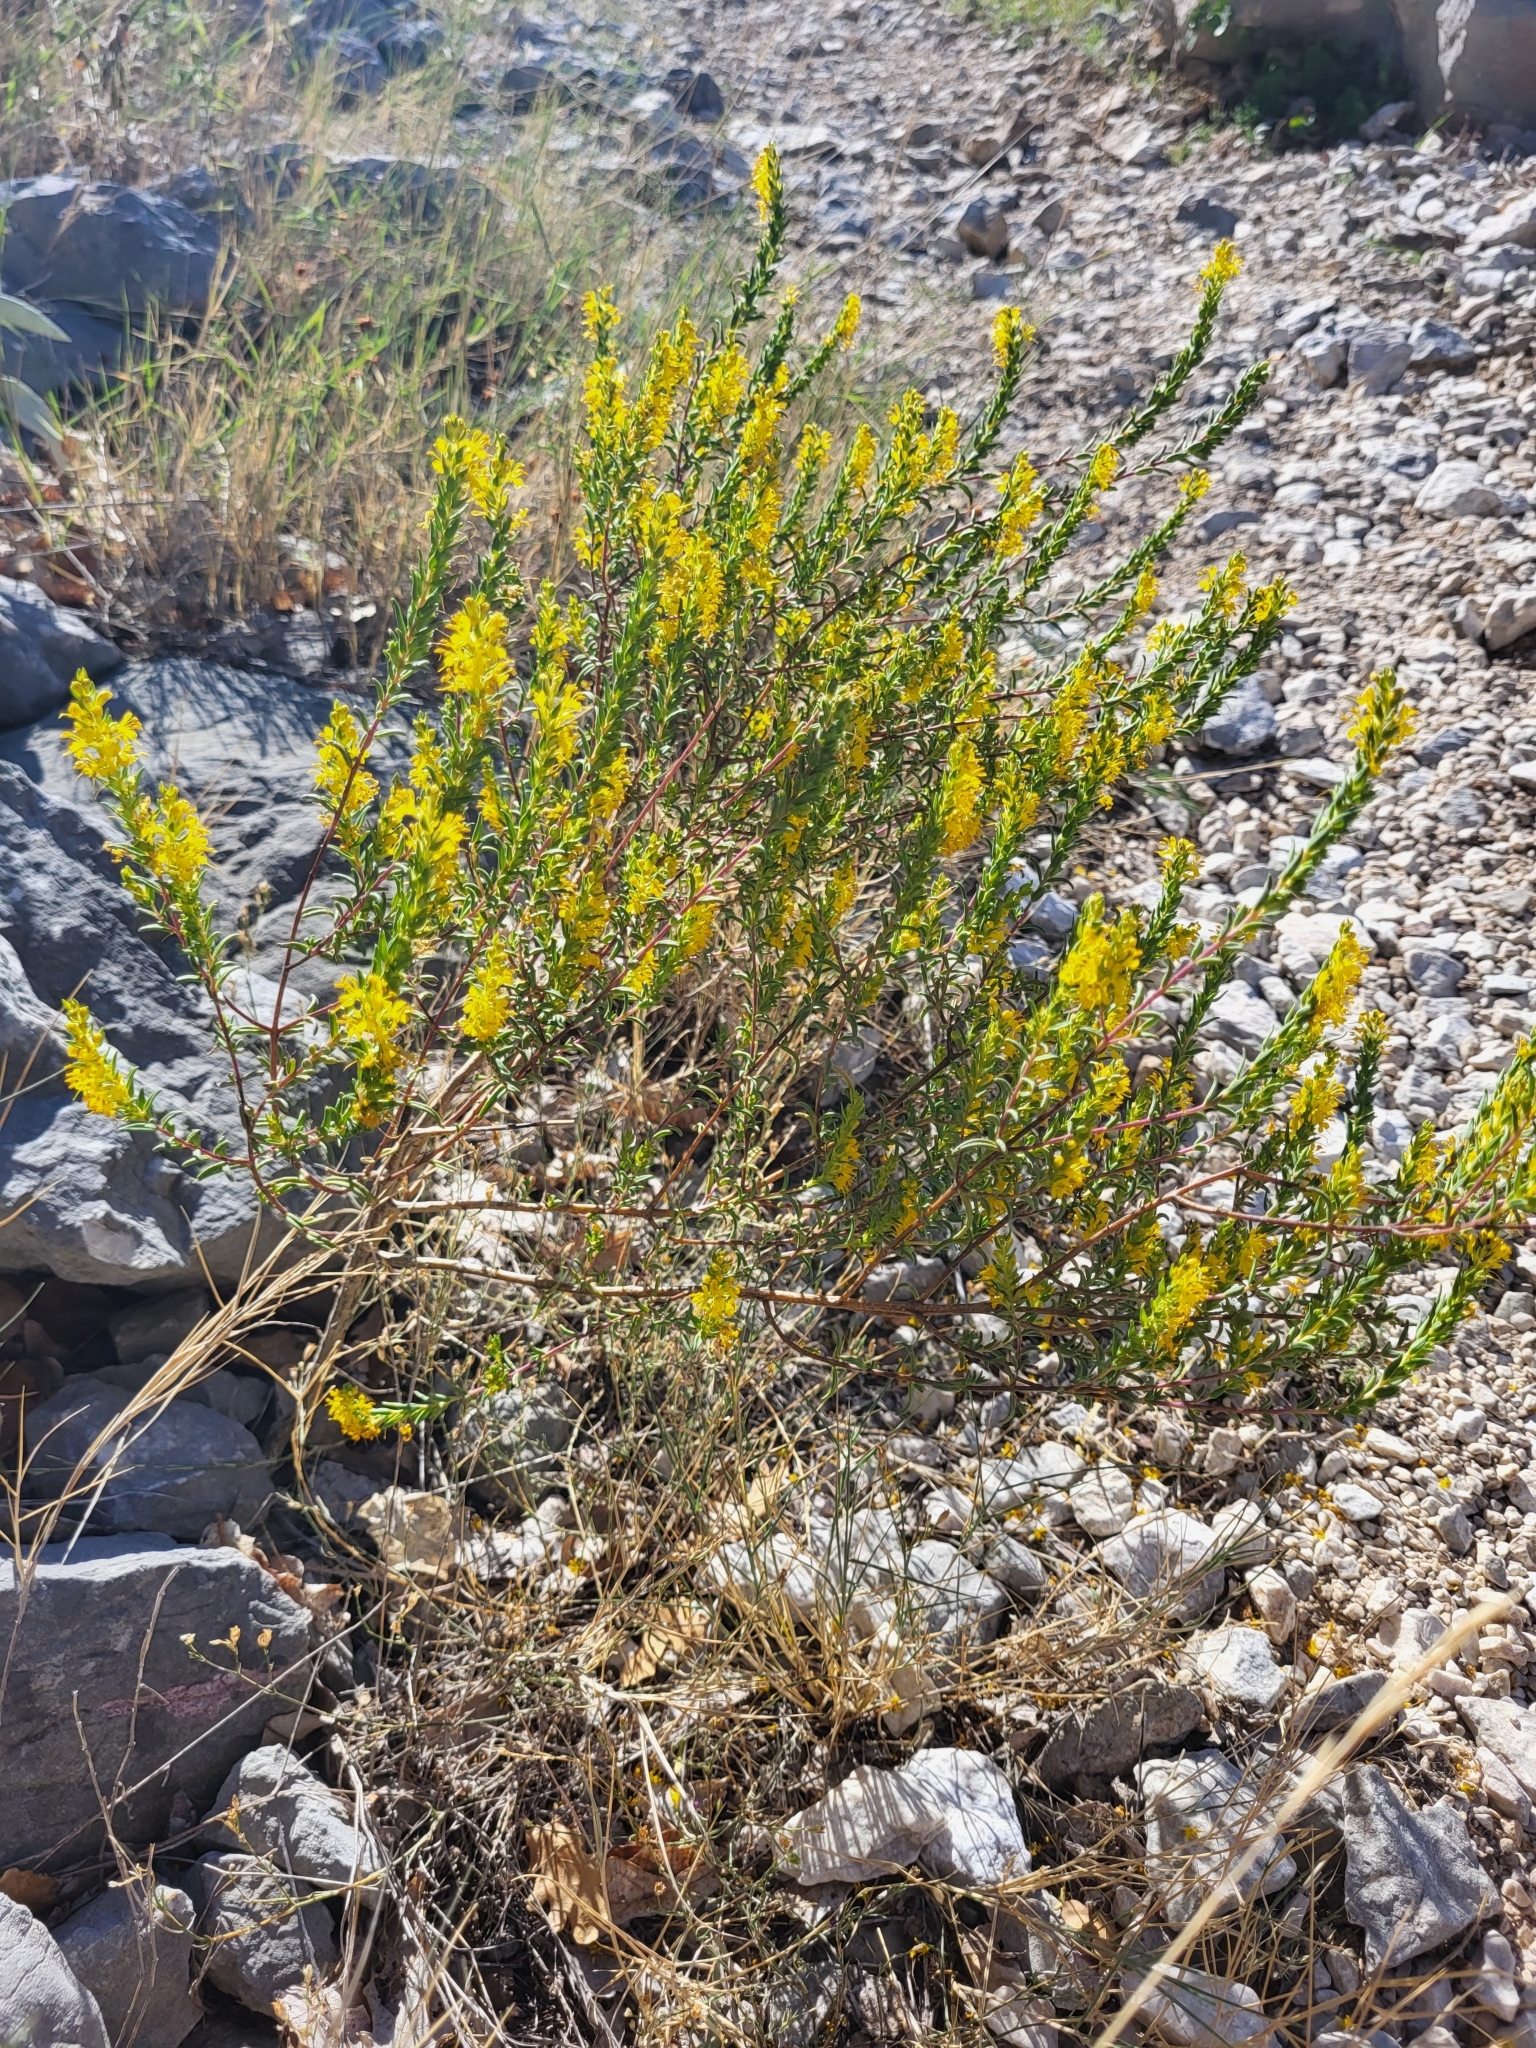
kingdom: Plantae
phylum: Tracheophyta
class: Magnoliopsida
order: Lamiales
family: Orobanchaceae
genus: Odontites
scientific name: Odontites luteus
